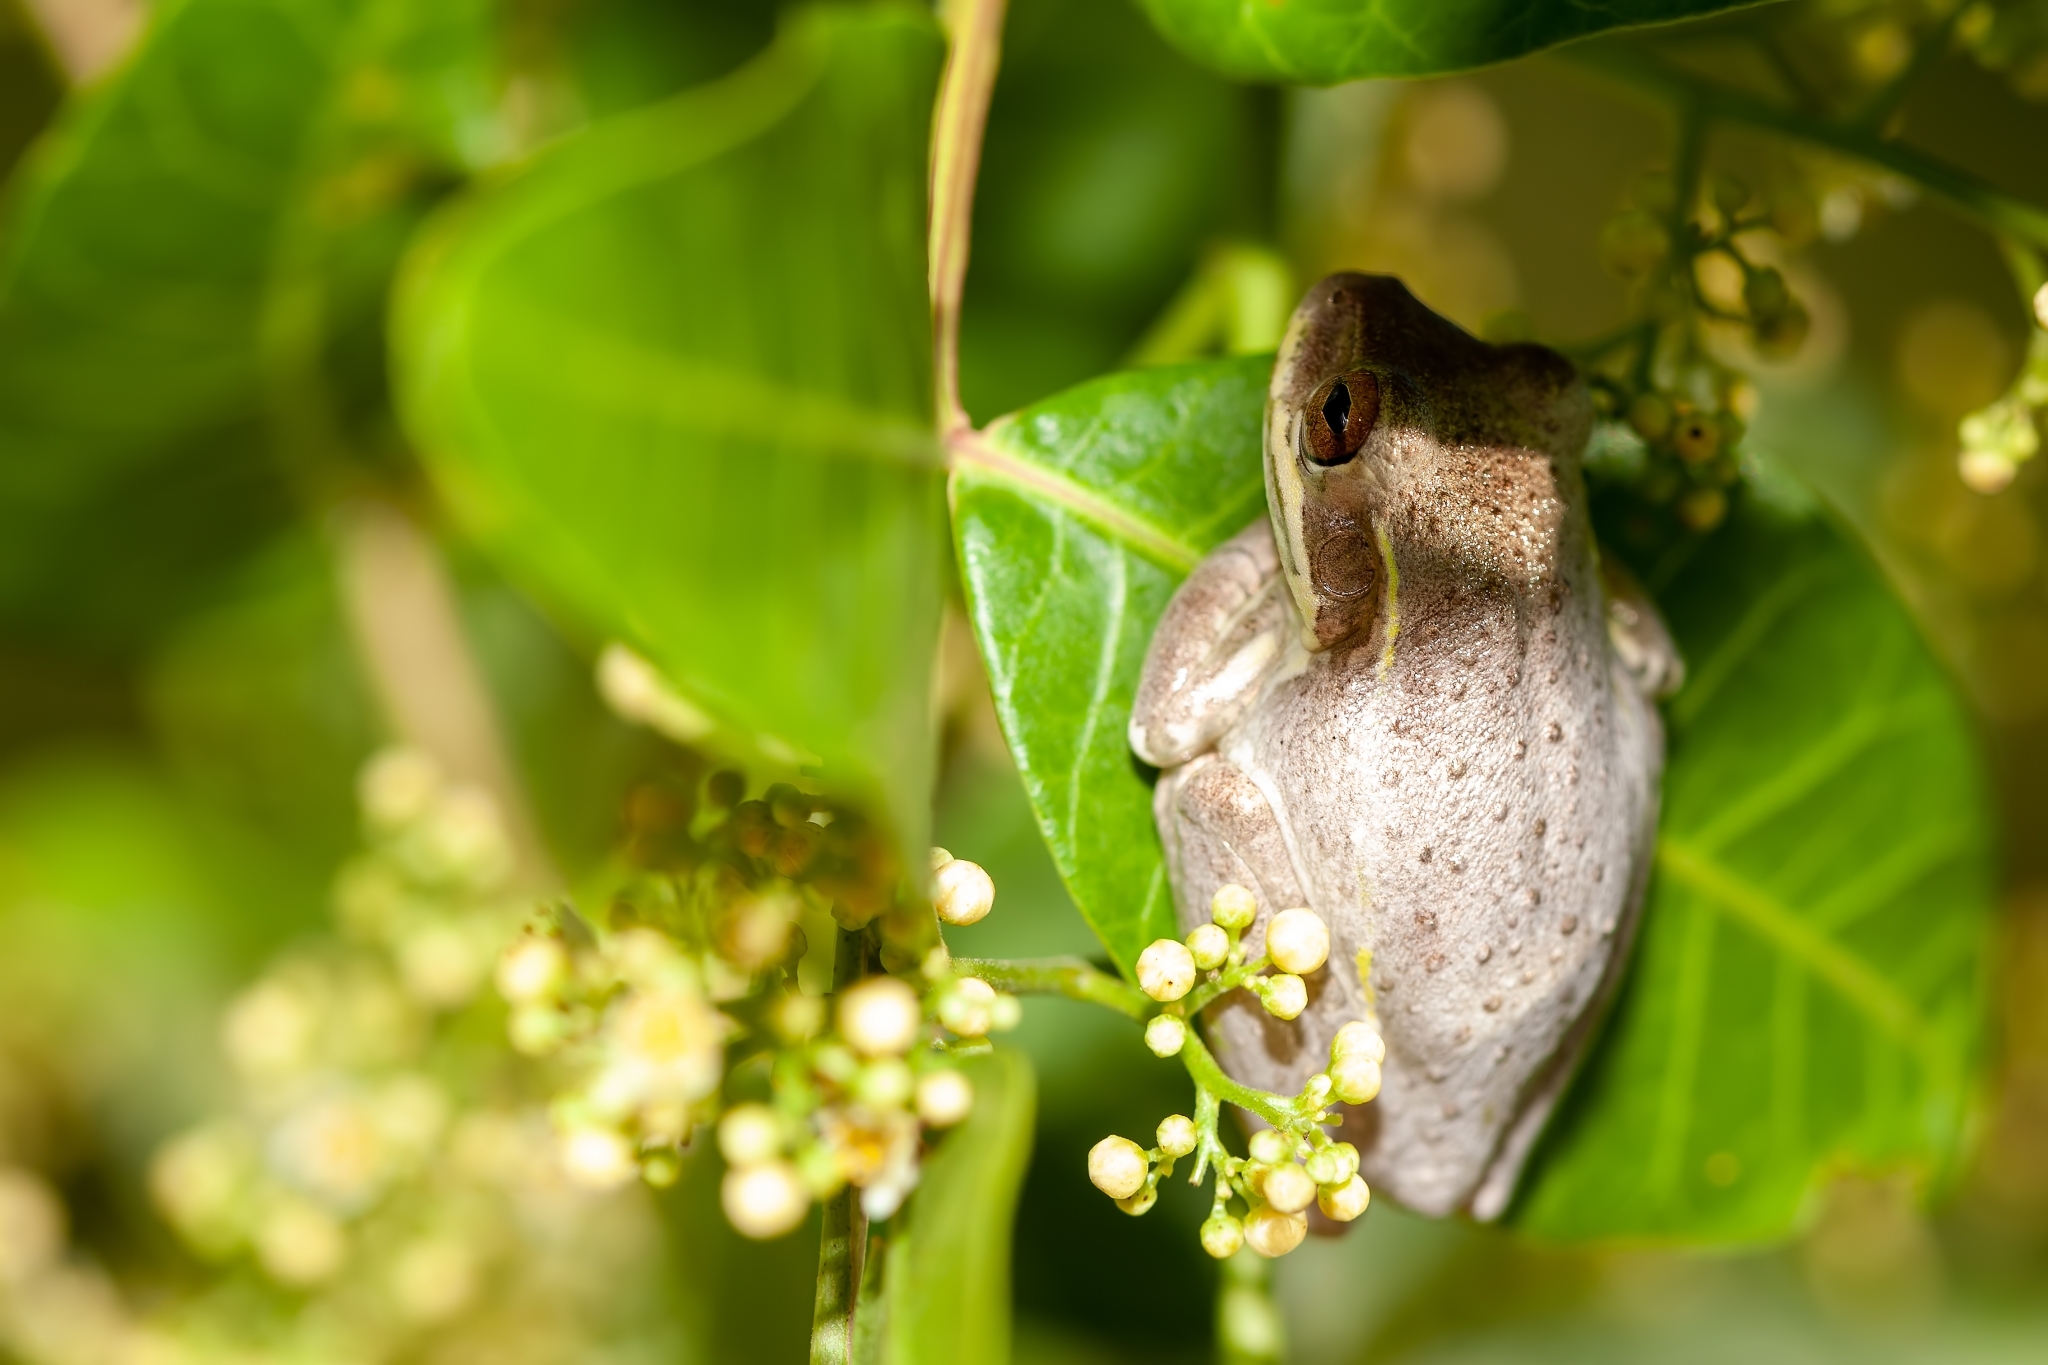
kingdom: Animalia
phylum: Chordata
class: Amphibia
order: Anura
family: Hylidae
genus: Osteopilus
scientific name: Osteopilus septentrionalis
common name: Cuban treefrog
